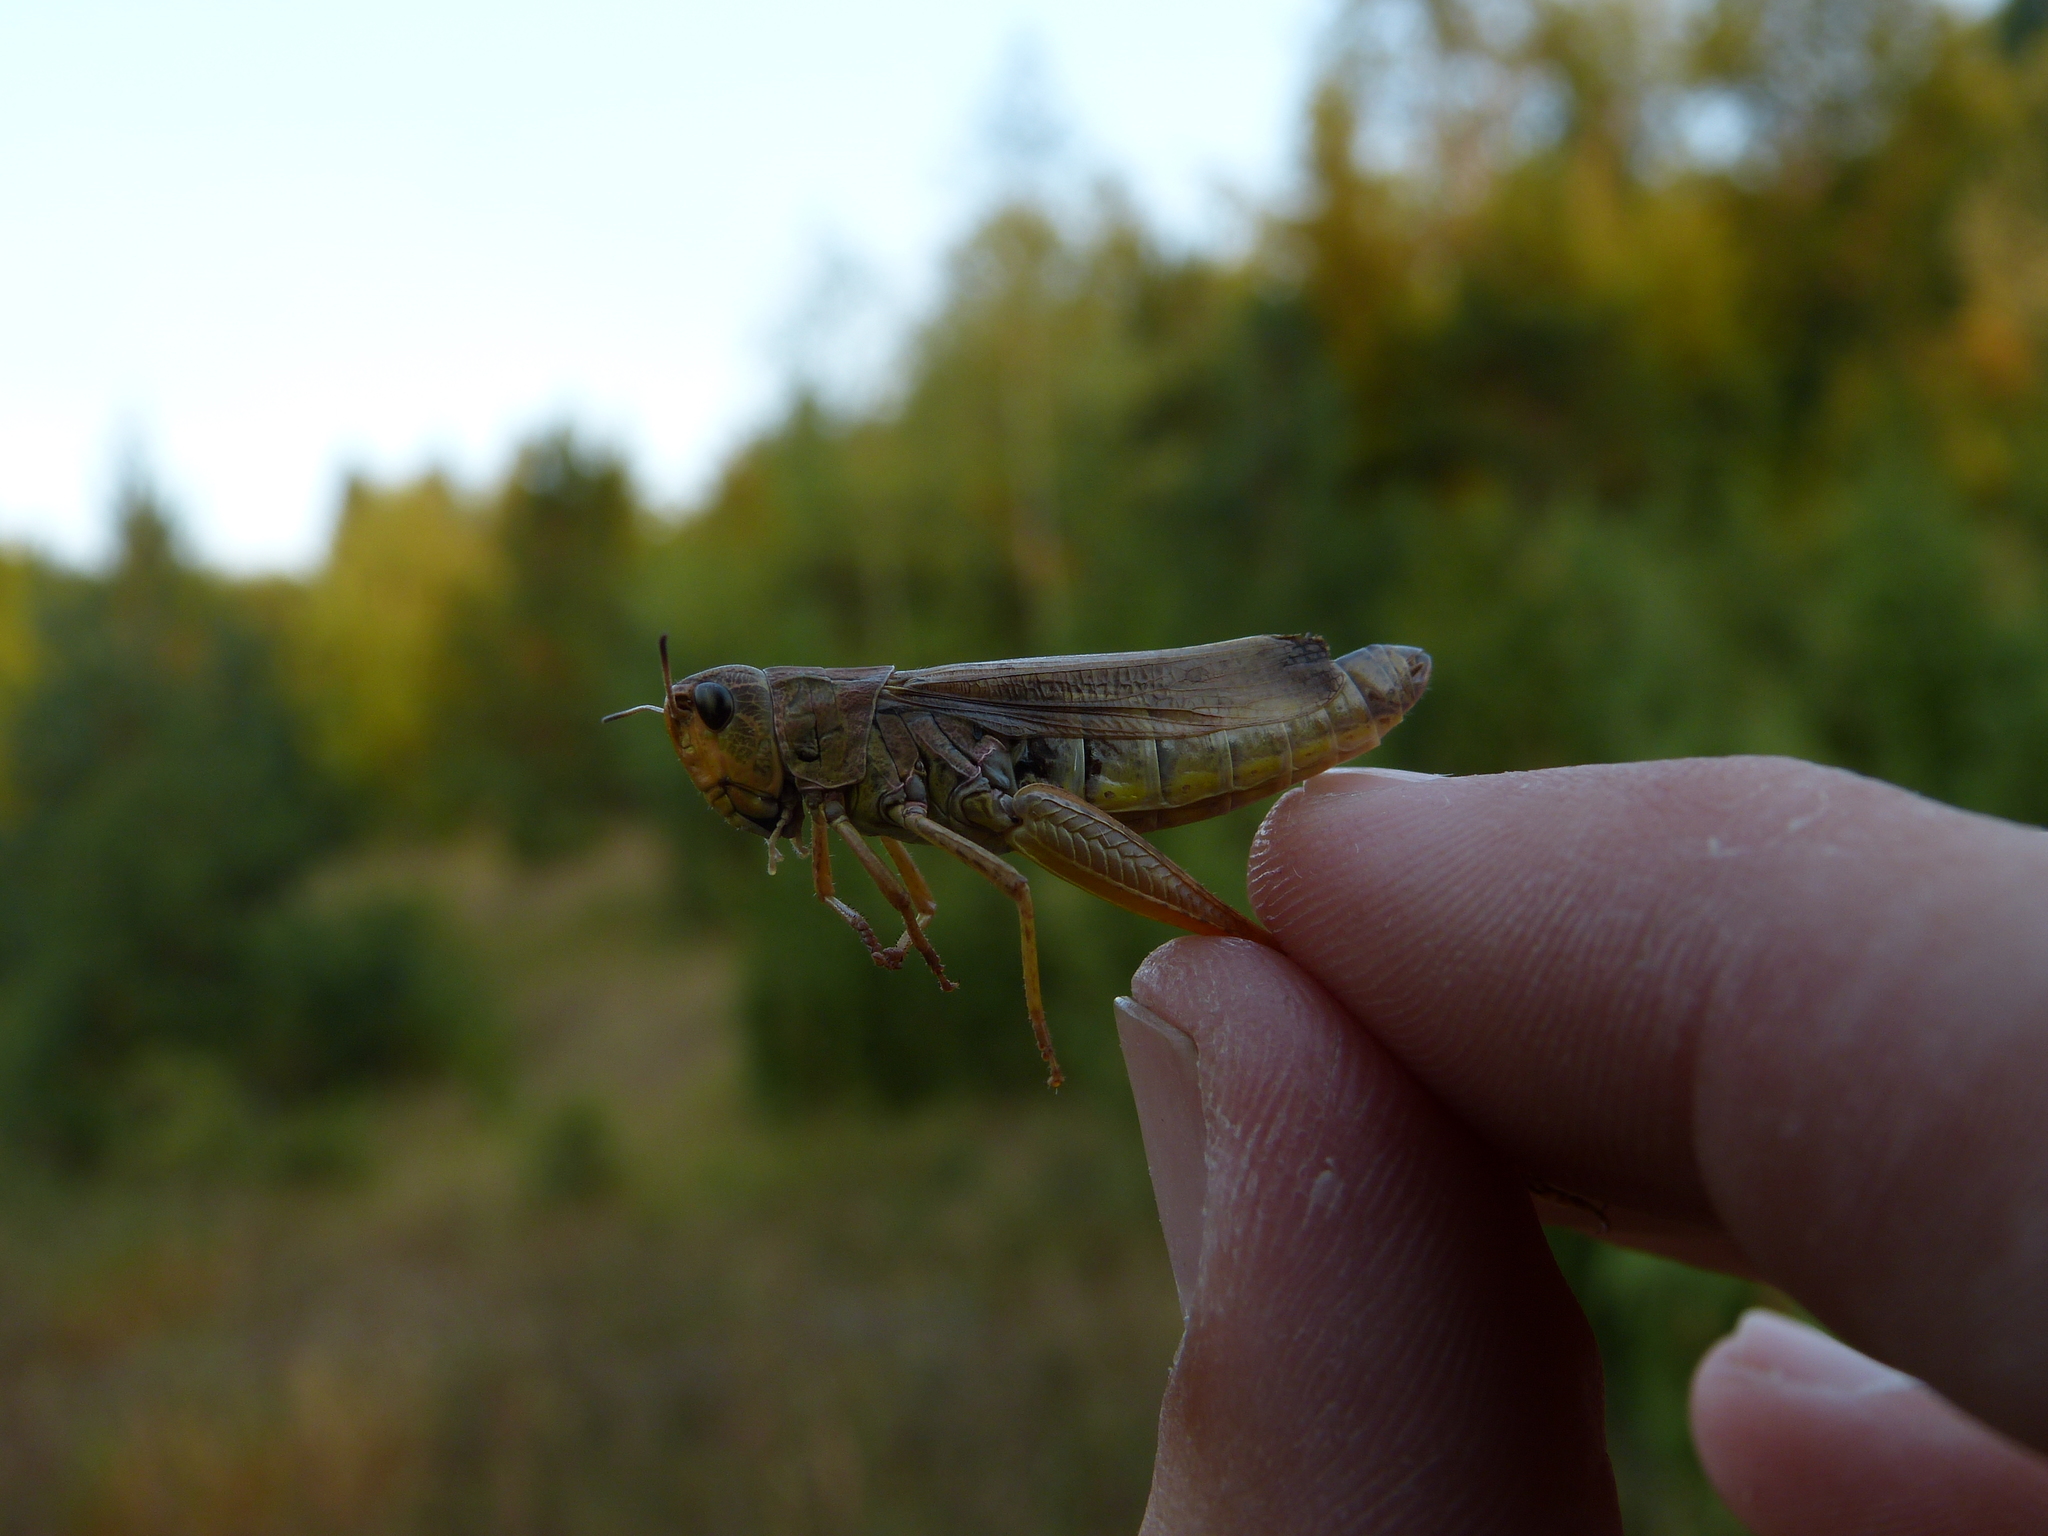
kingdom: Animalia
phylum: Arthropoda
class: Insecta
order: Orthoptera
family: Acrididae
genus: Stauroderus
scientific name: Stauroderus scalaris
